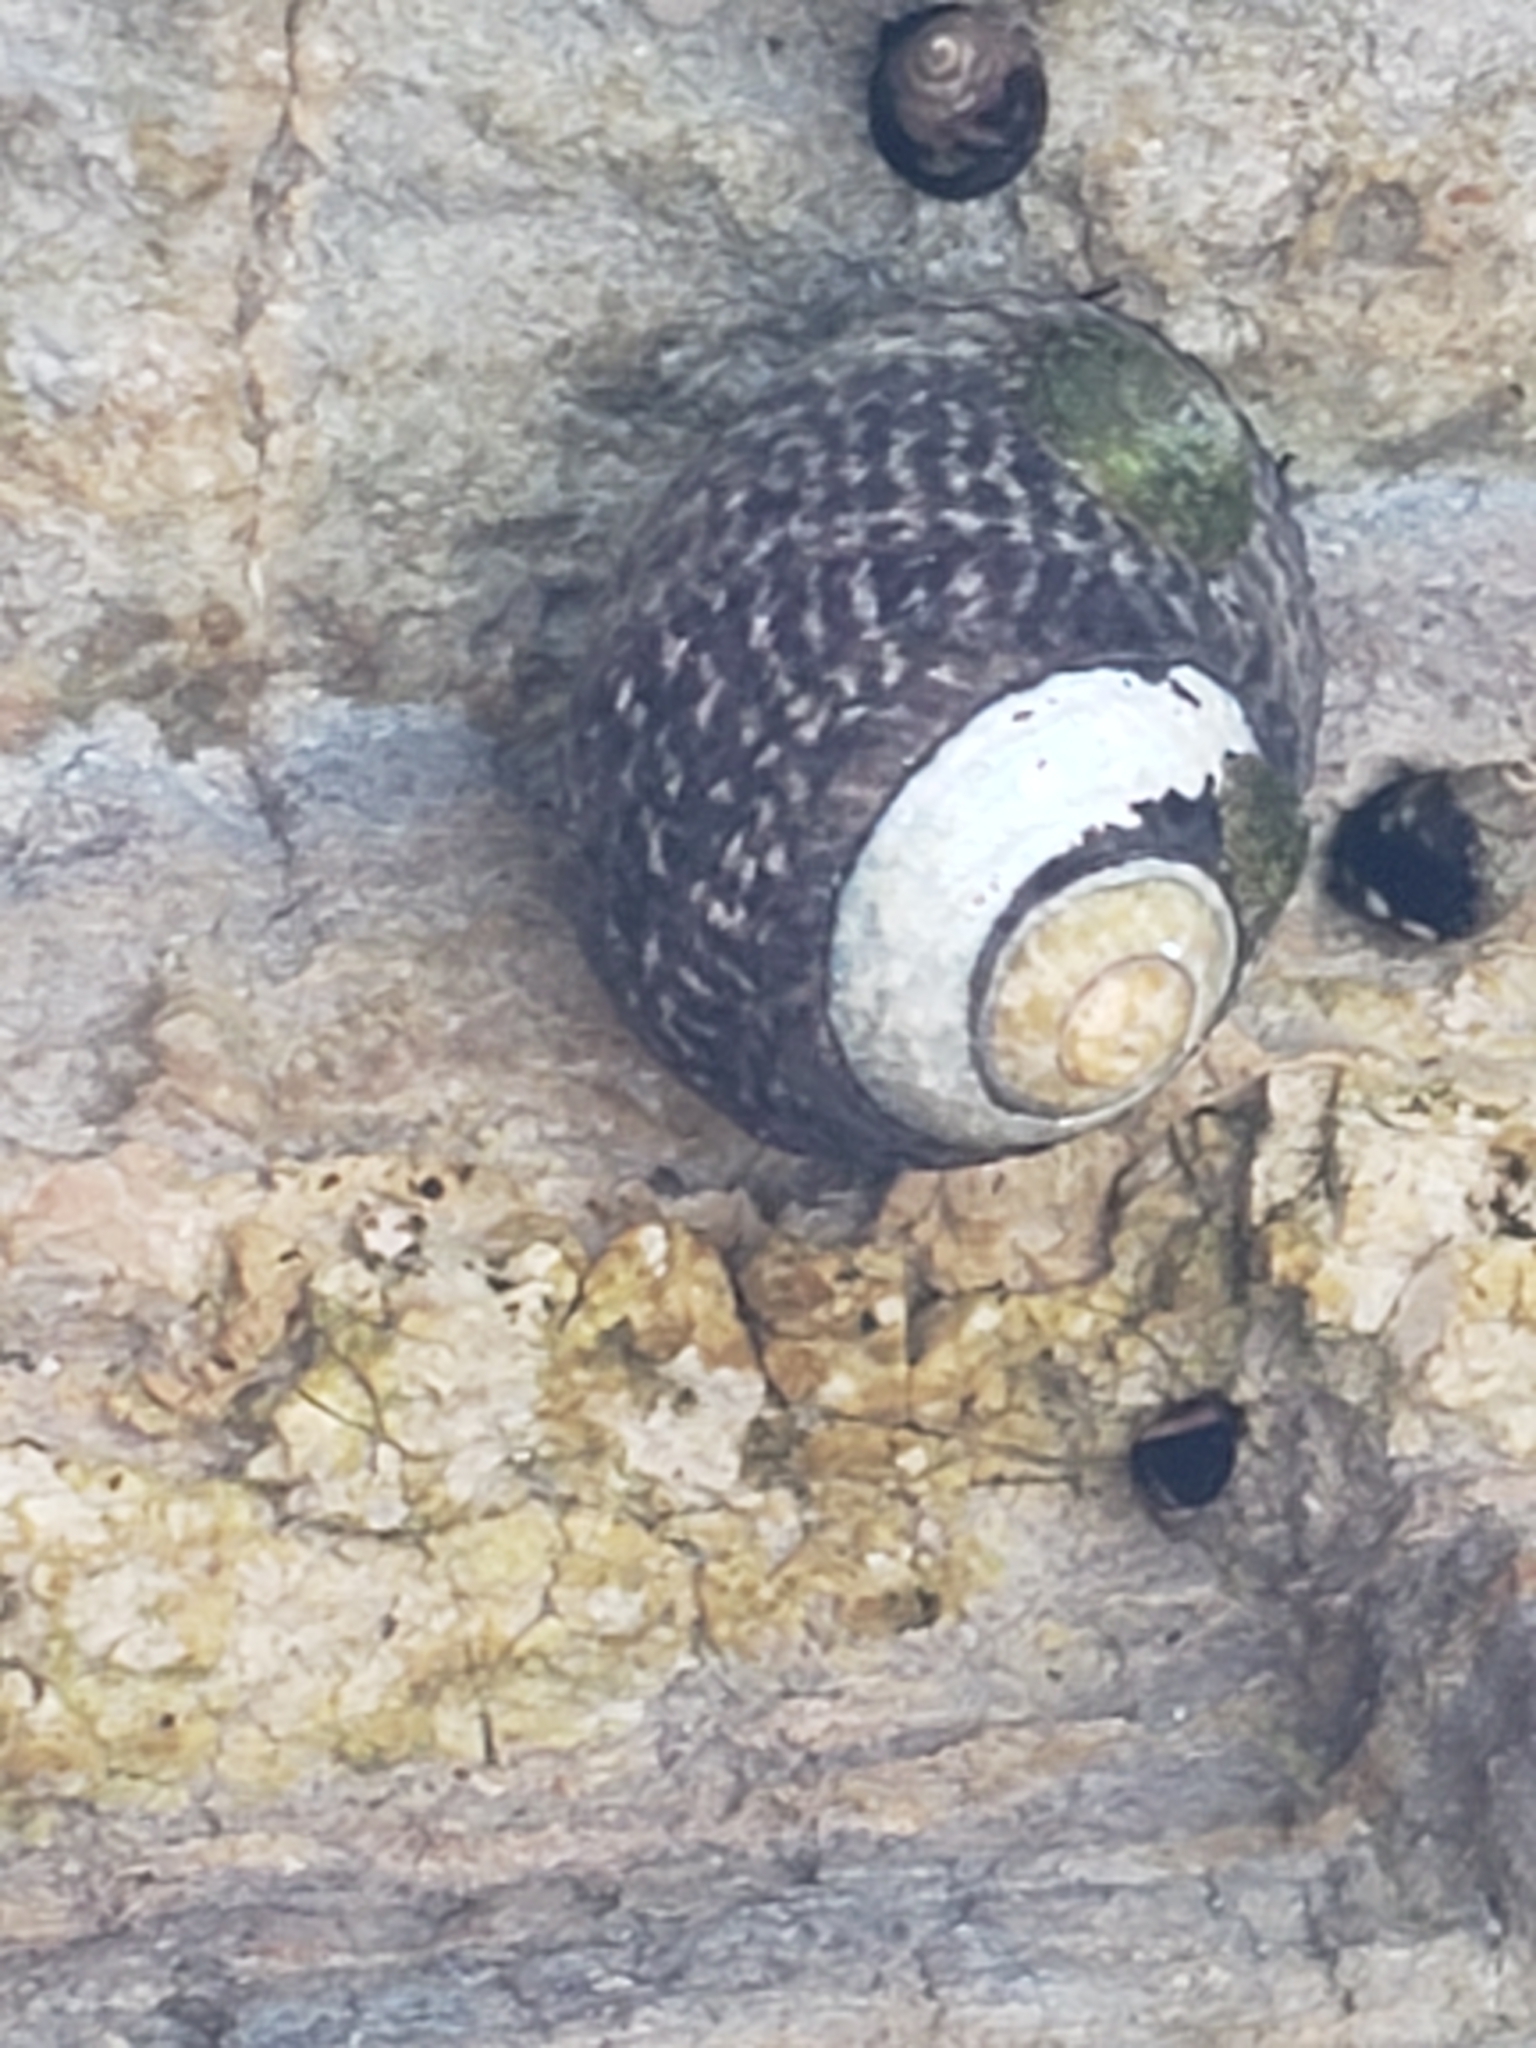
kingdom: Animalia
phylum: Mollusca
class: Gastropoda
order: Trochida
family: Tegulidae
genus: Tegula
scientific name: Tegula gallina
